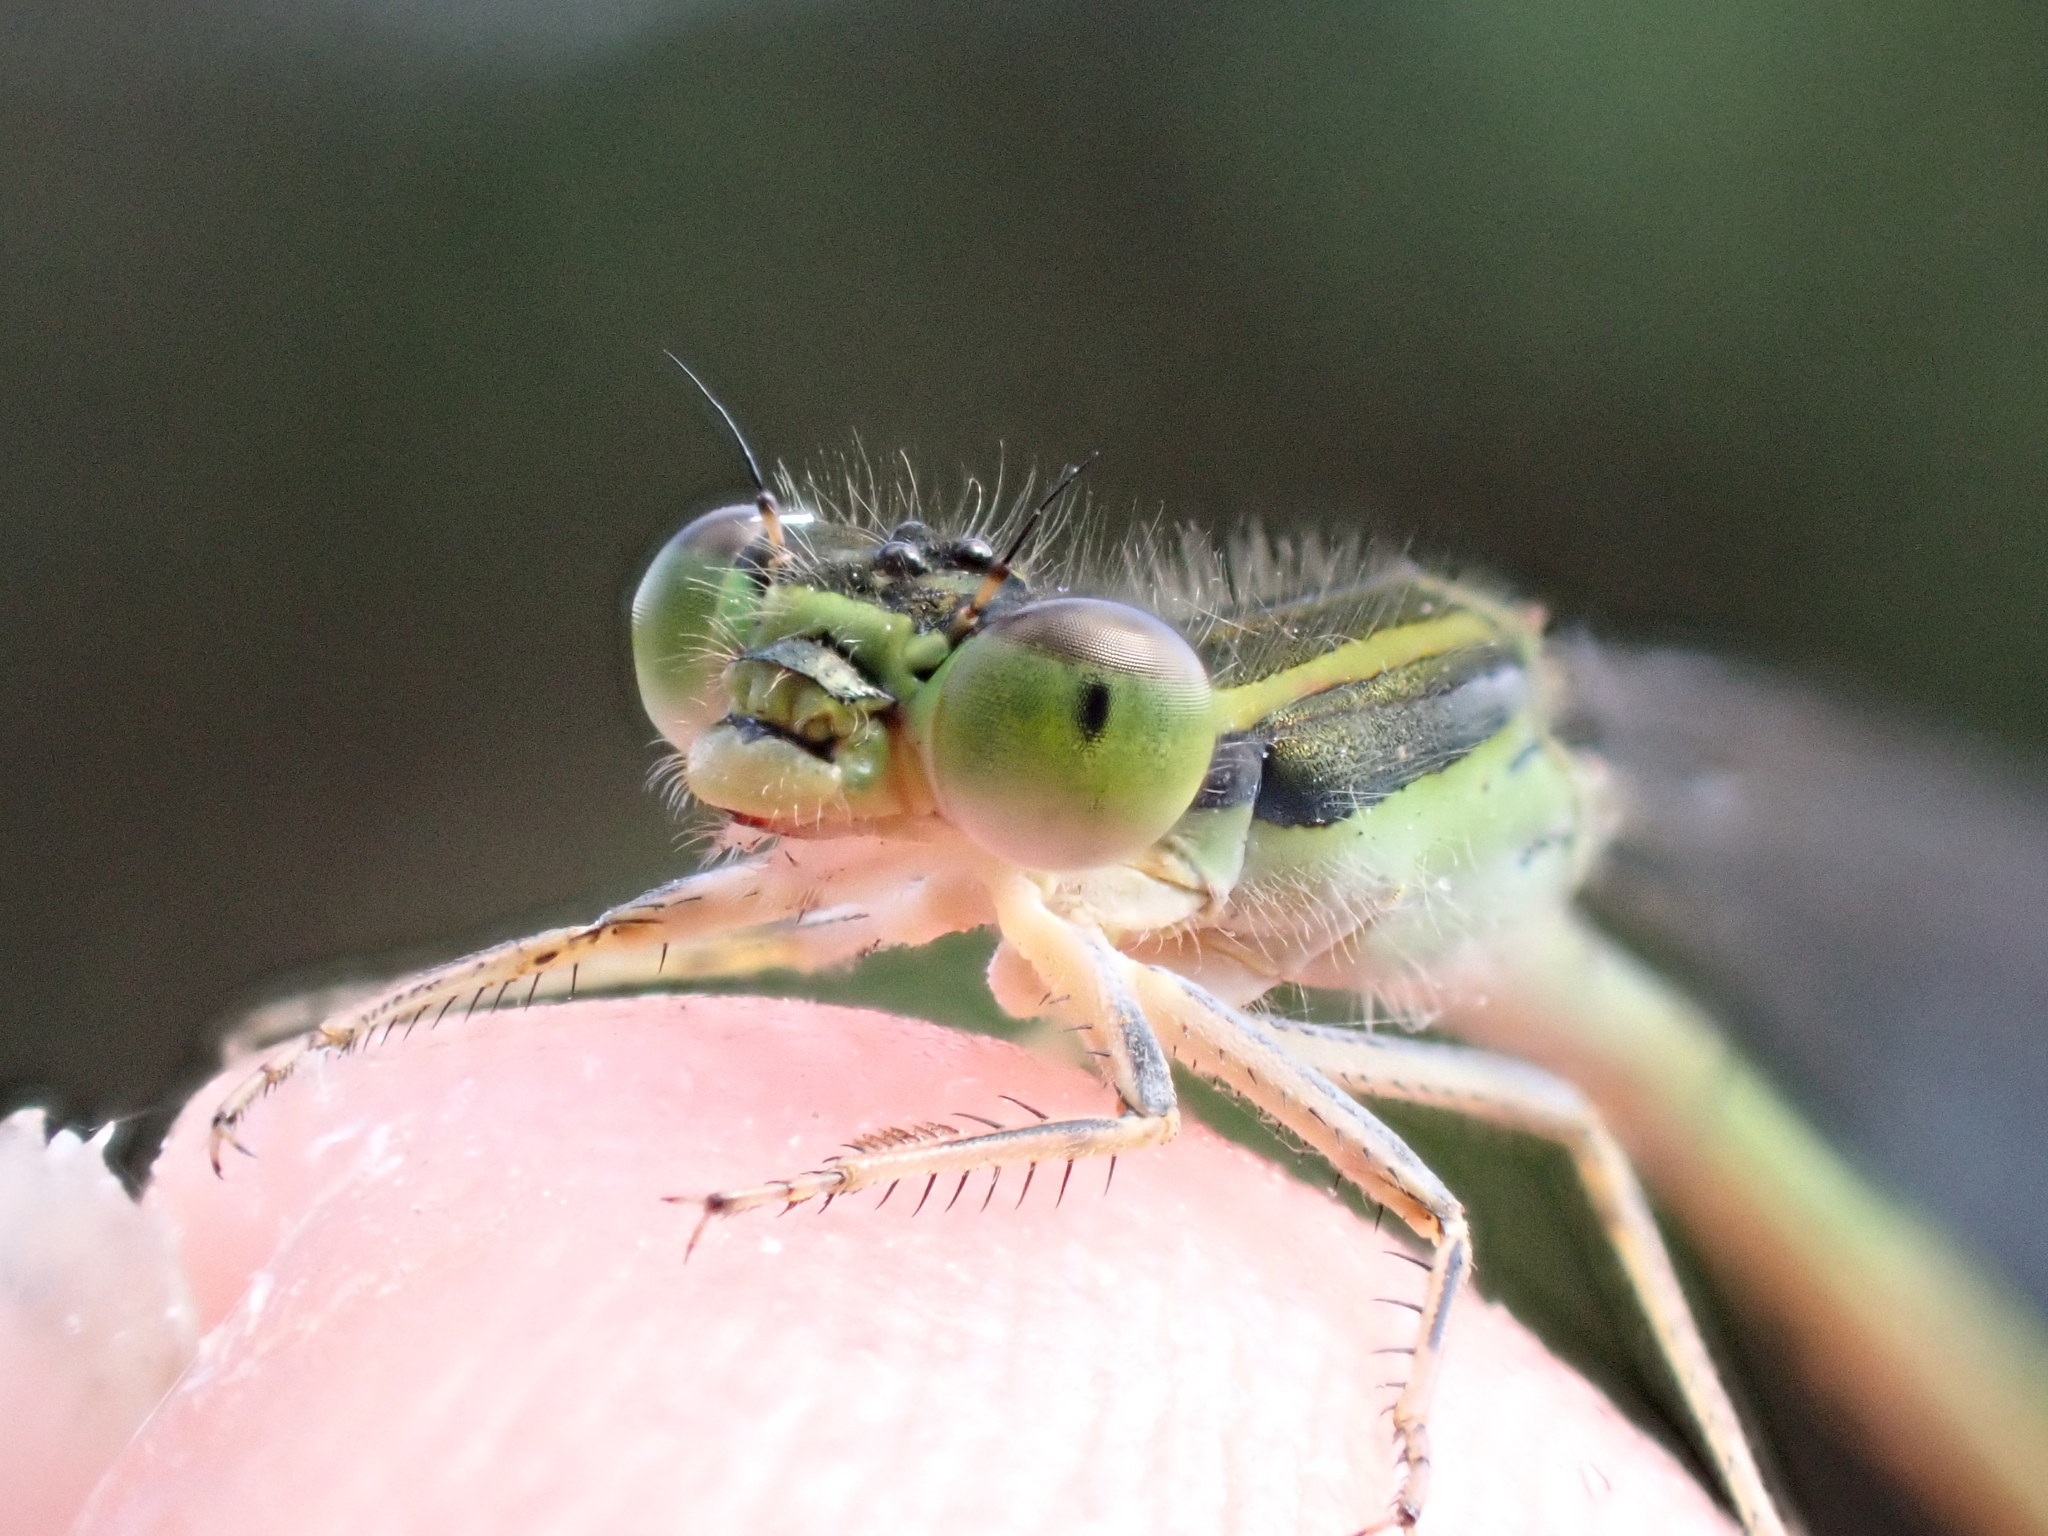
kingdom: Animalia
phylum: Arthropoda
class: Insecta
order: Odonata
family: Coenagrionidae
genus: Ischnura
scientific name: Ischnura aurora
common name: Gossamer damselfly
